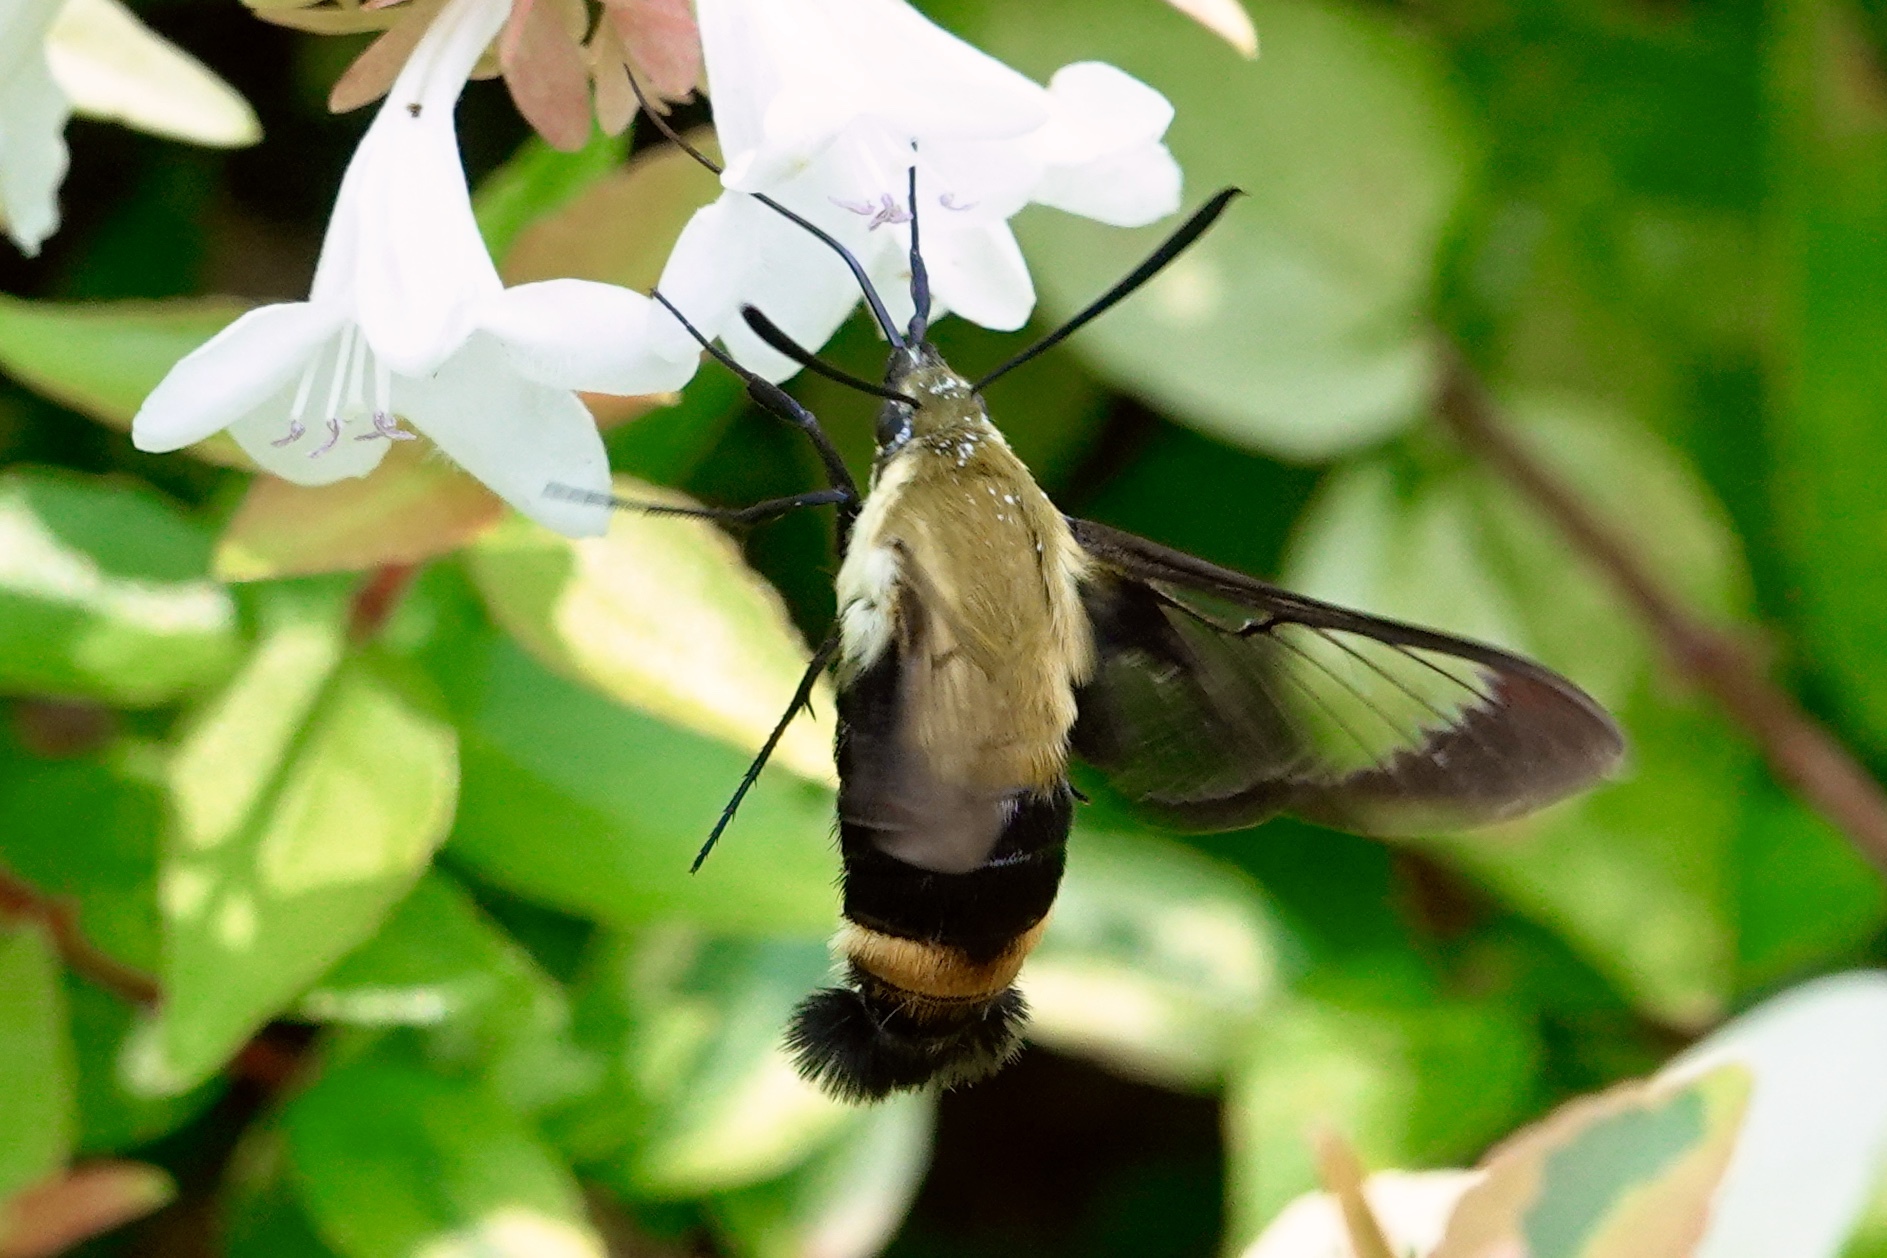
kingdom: Animalia
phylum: Arthropoda
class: Insecta
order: Lepidoptera
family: Sphingidae
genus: Hemaris
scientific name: Hemaris diffinis
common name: Bumblebee moth
